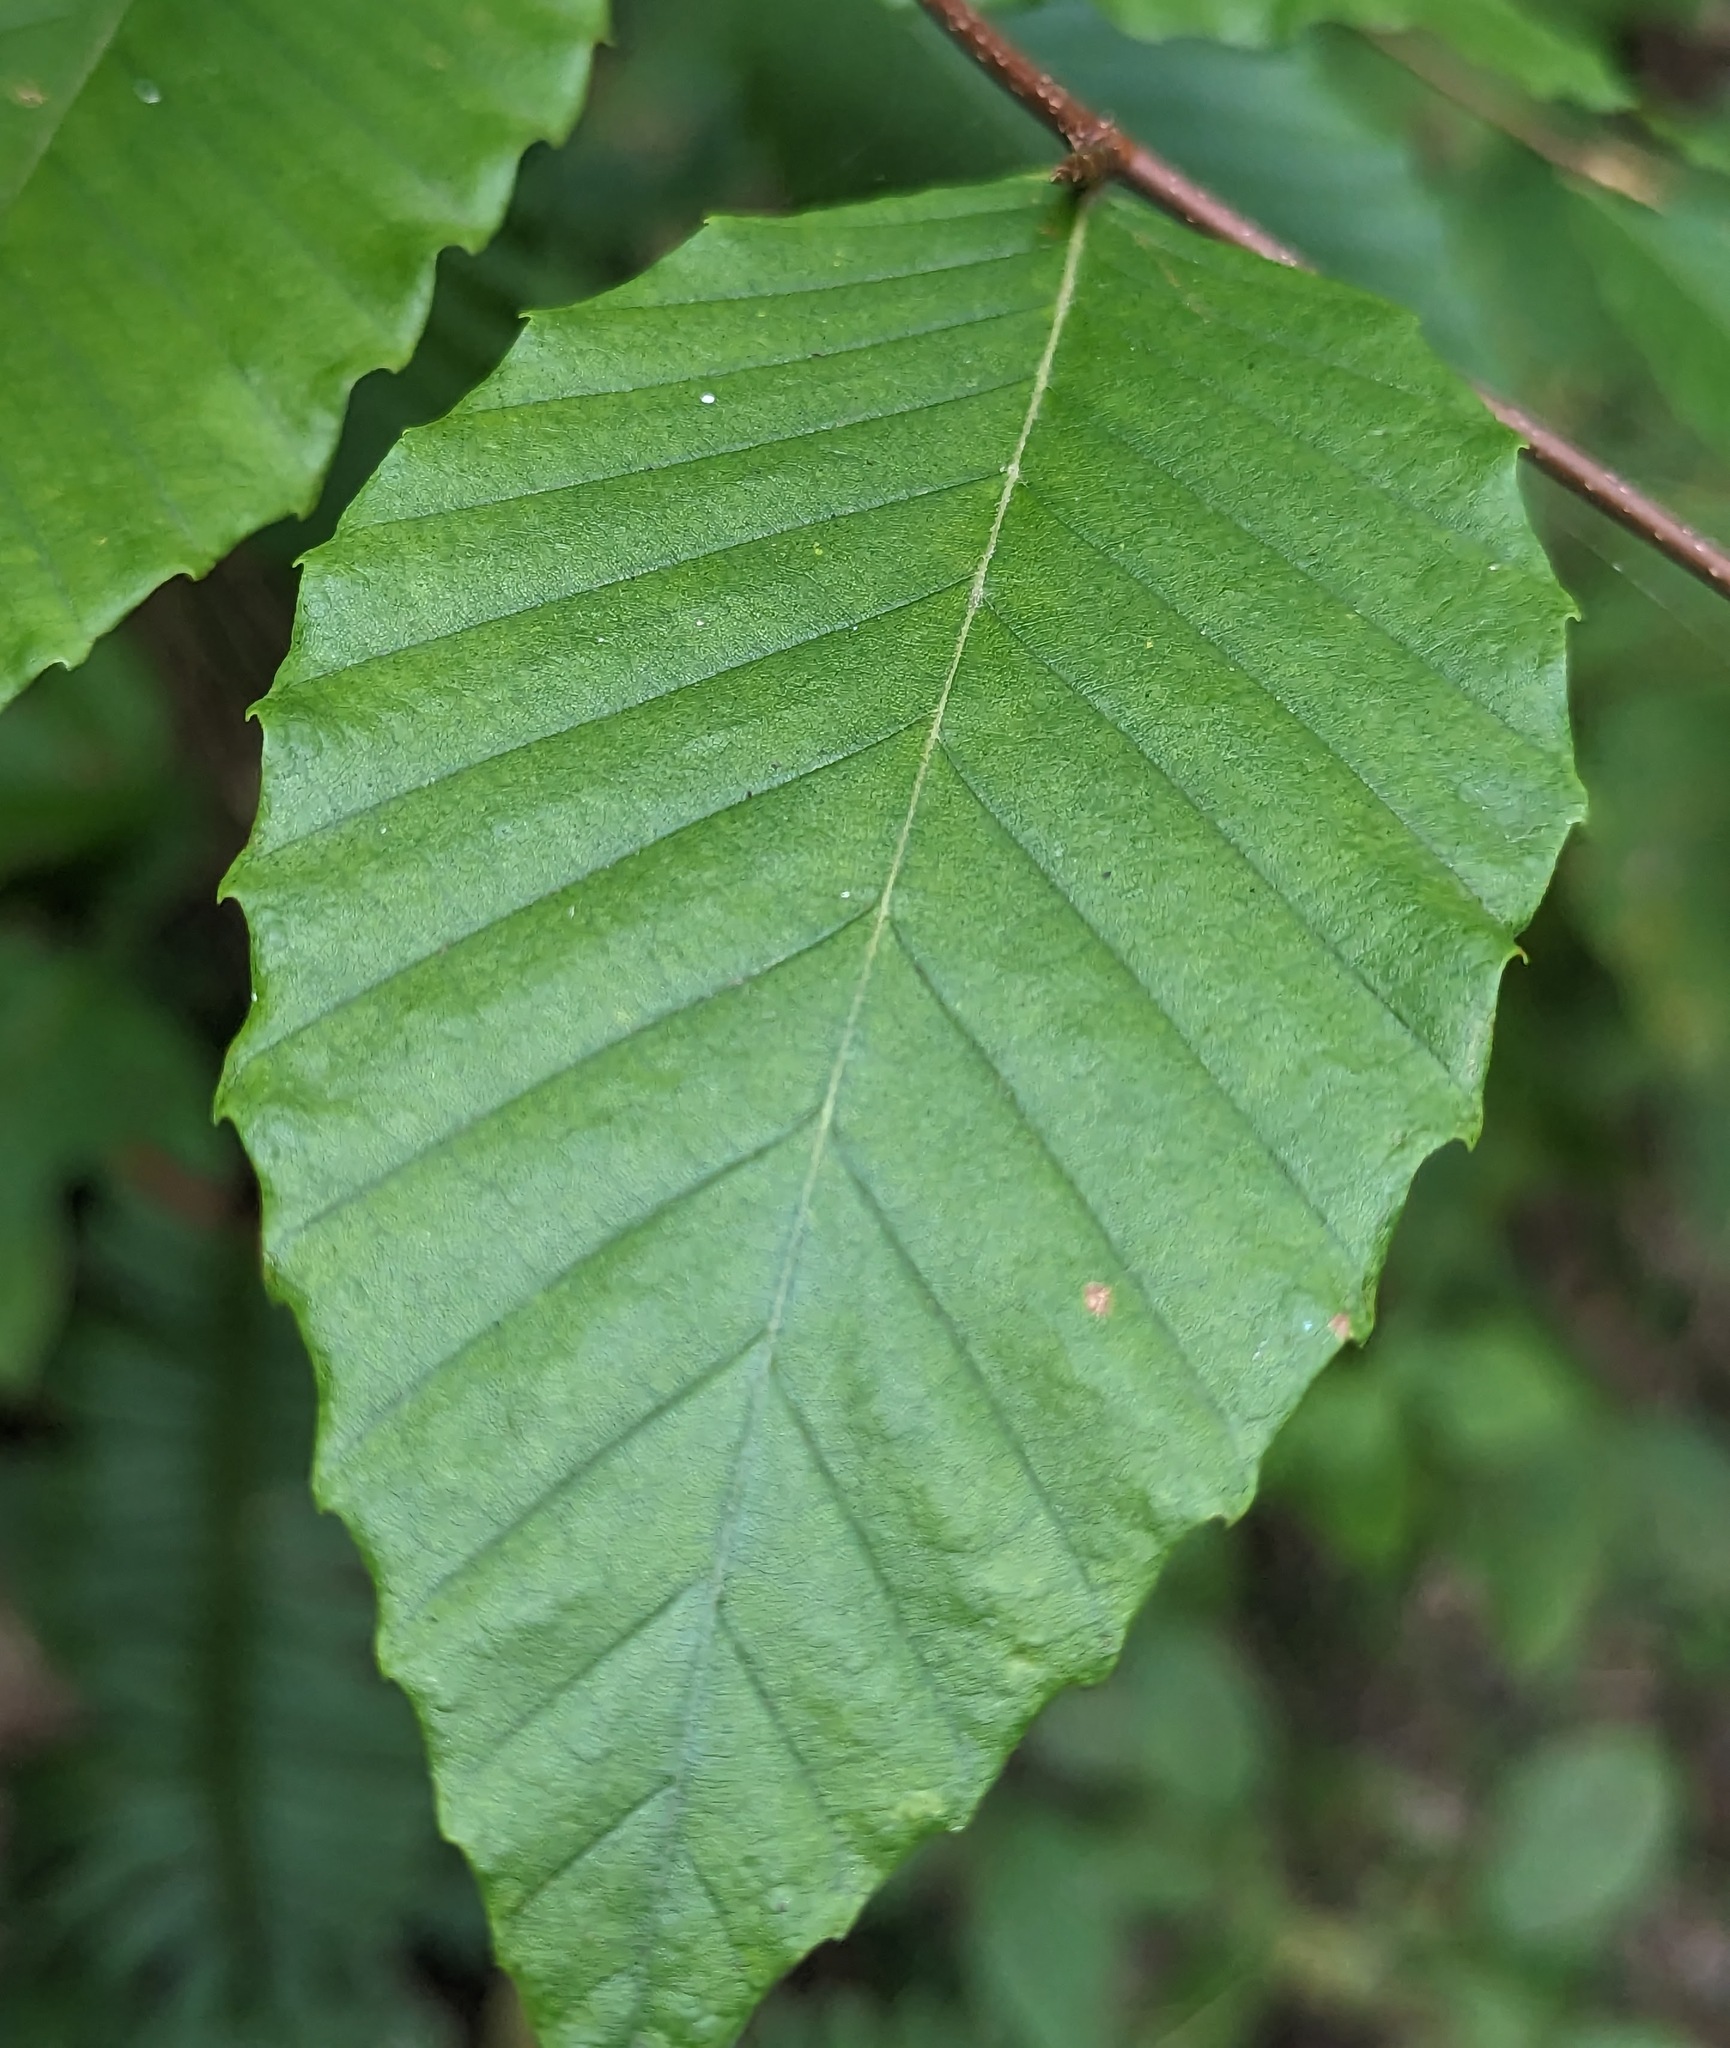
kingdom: Plantae
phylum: Tracheophyta
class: Magnoliopsida
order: Fagales
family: Fagaceae
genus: Fagus
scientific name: Fagus grandifolia
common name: American beech
